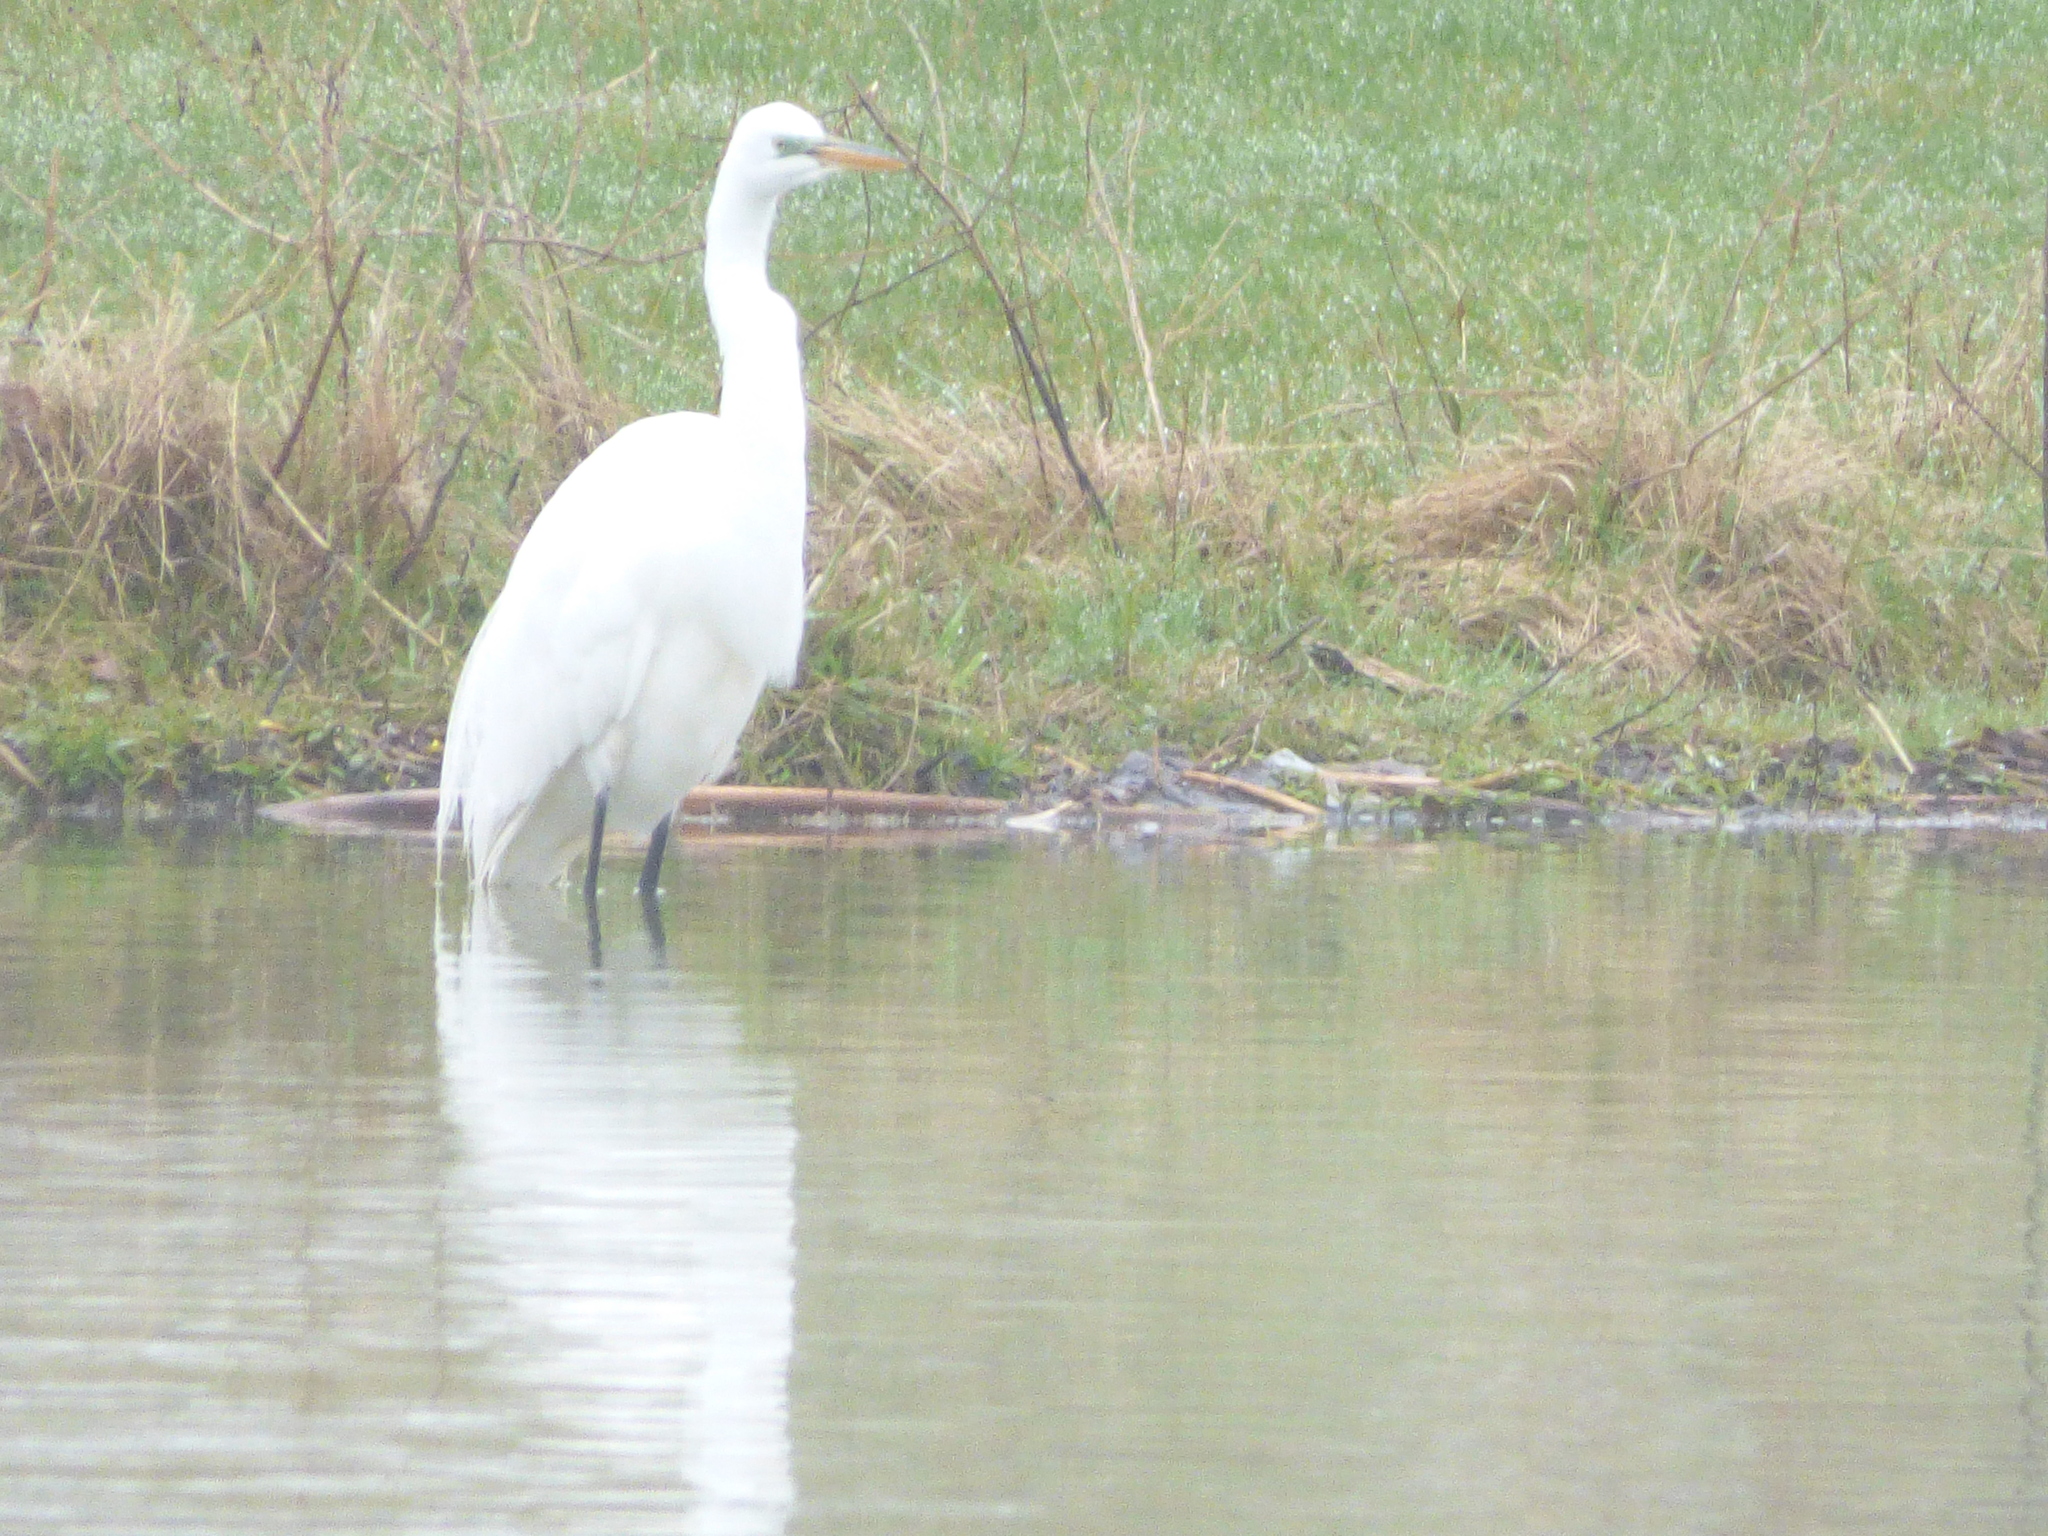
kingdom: Animalia
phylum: Chordata
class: Aves
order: Pelecaniformes
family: Ardeidae
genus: Ardea
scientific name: Ardea alba
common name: Great egret
